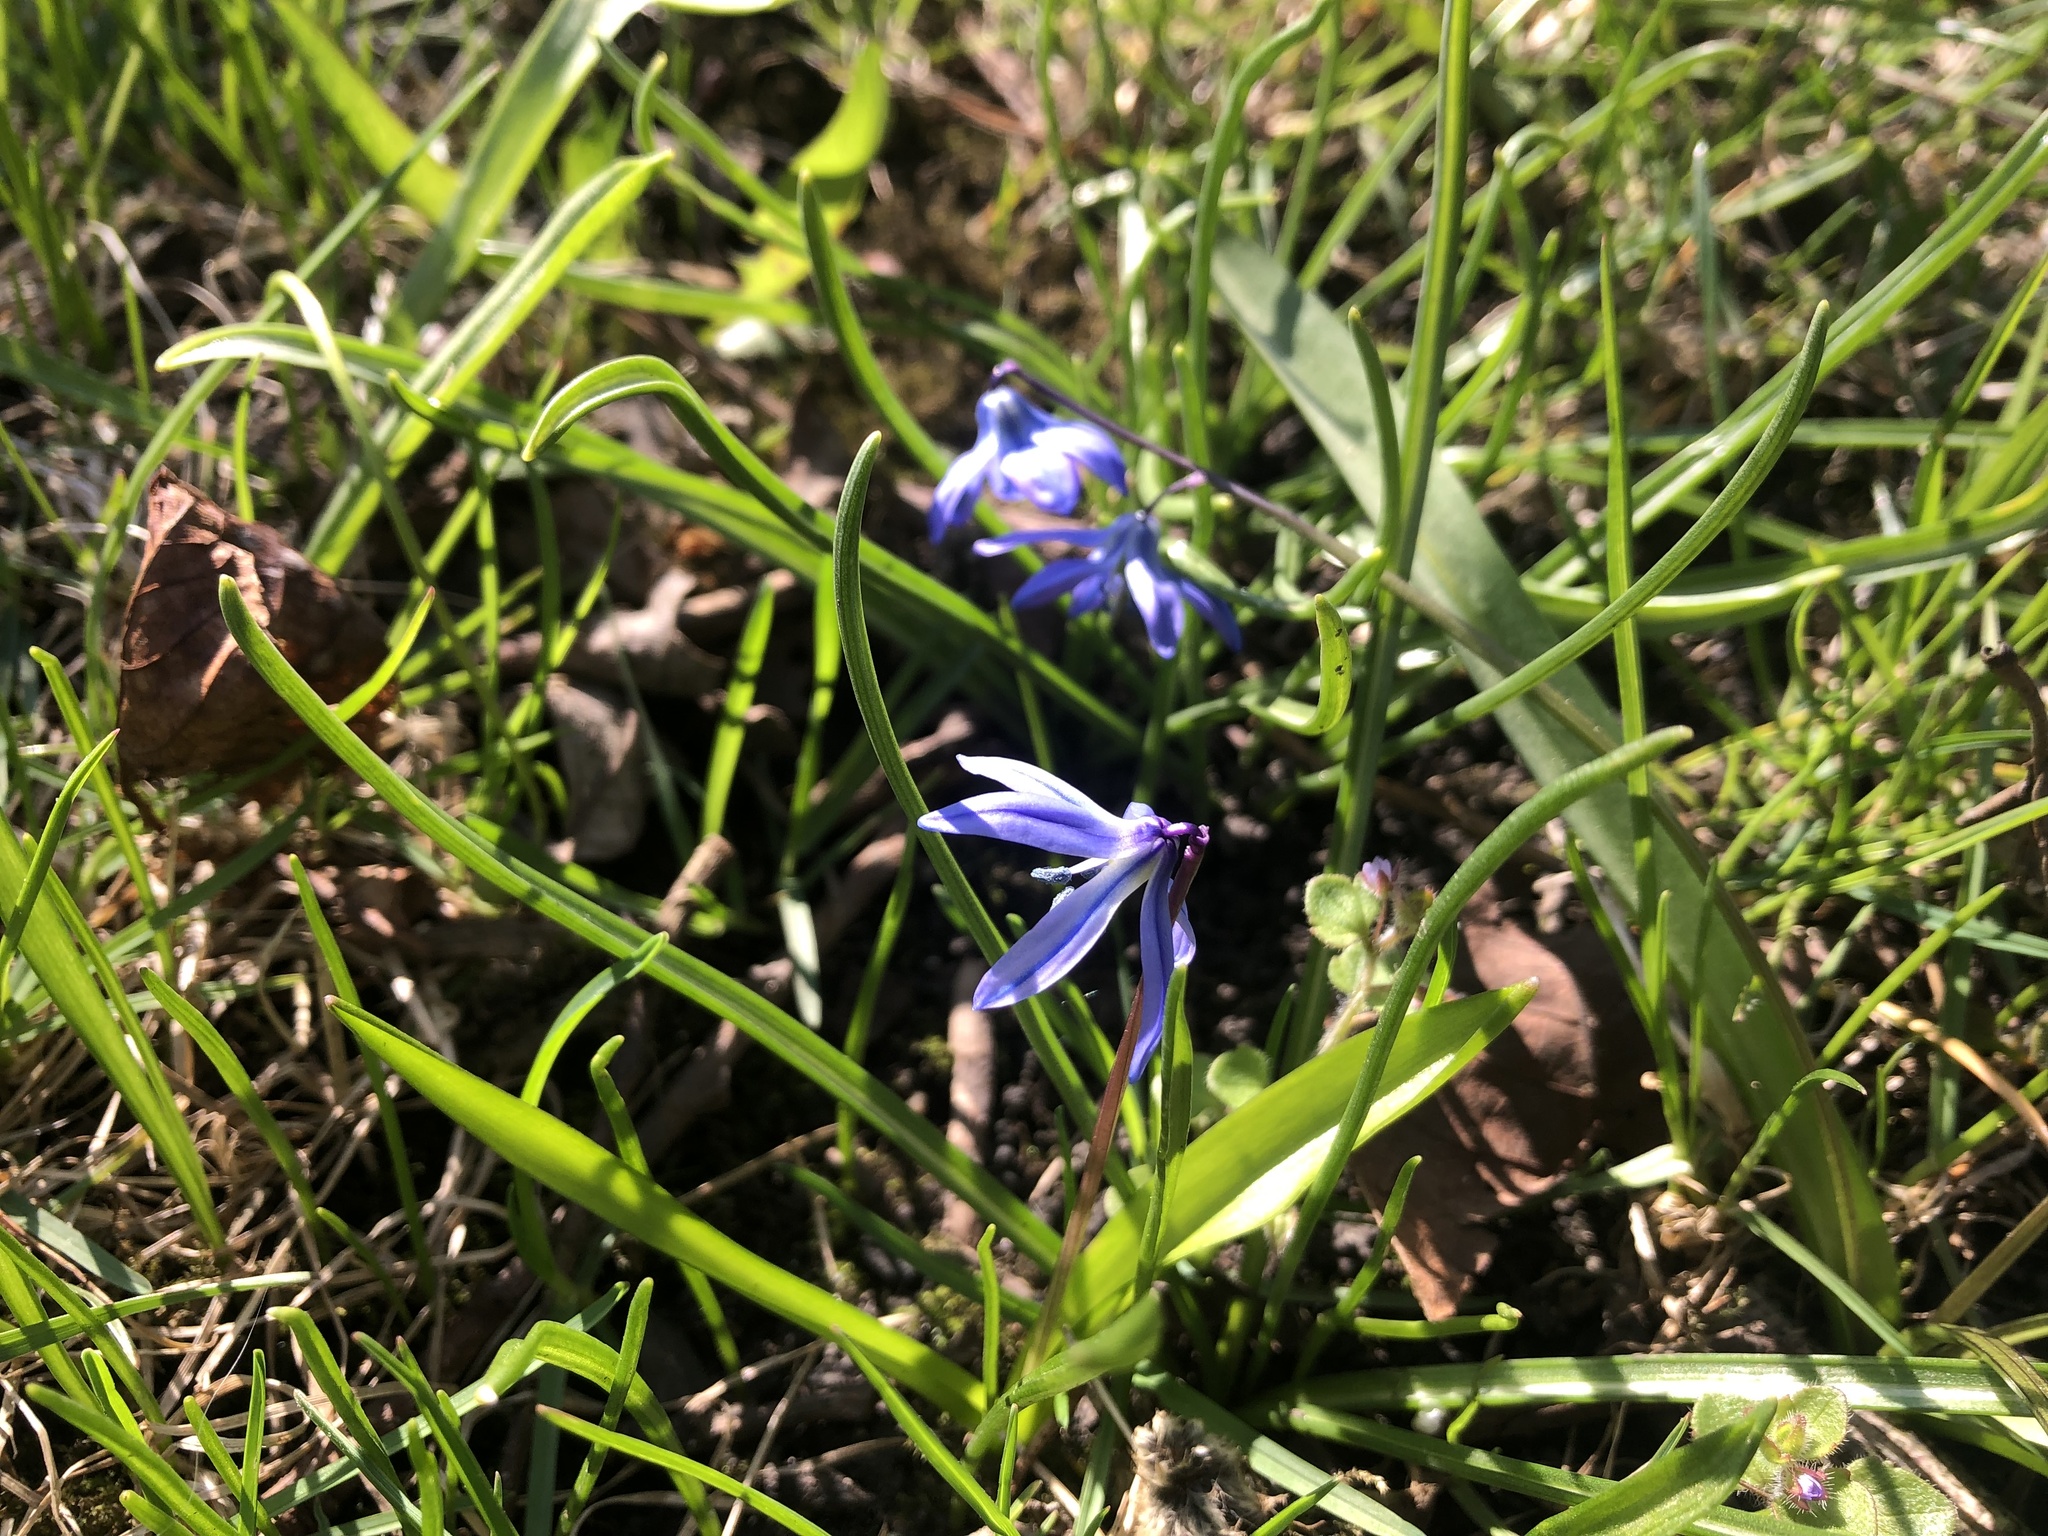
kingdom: Plantae
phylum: Tracheophyta
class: Liliopsida
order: Asparagales
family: Asparagaceae
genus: Scilla
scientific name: Scilla siberica
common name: Siberian squill
